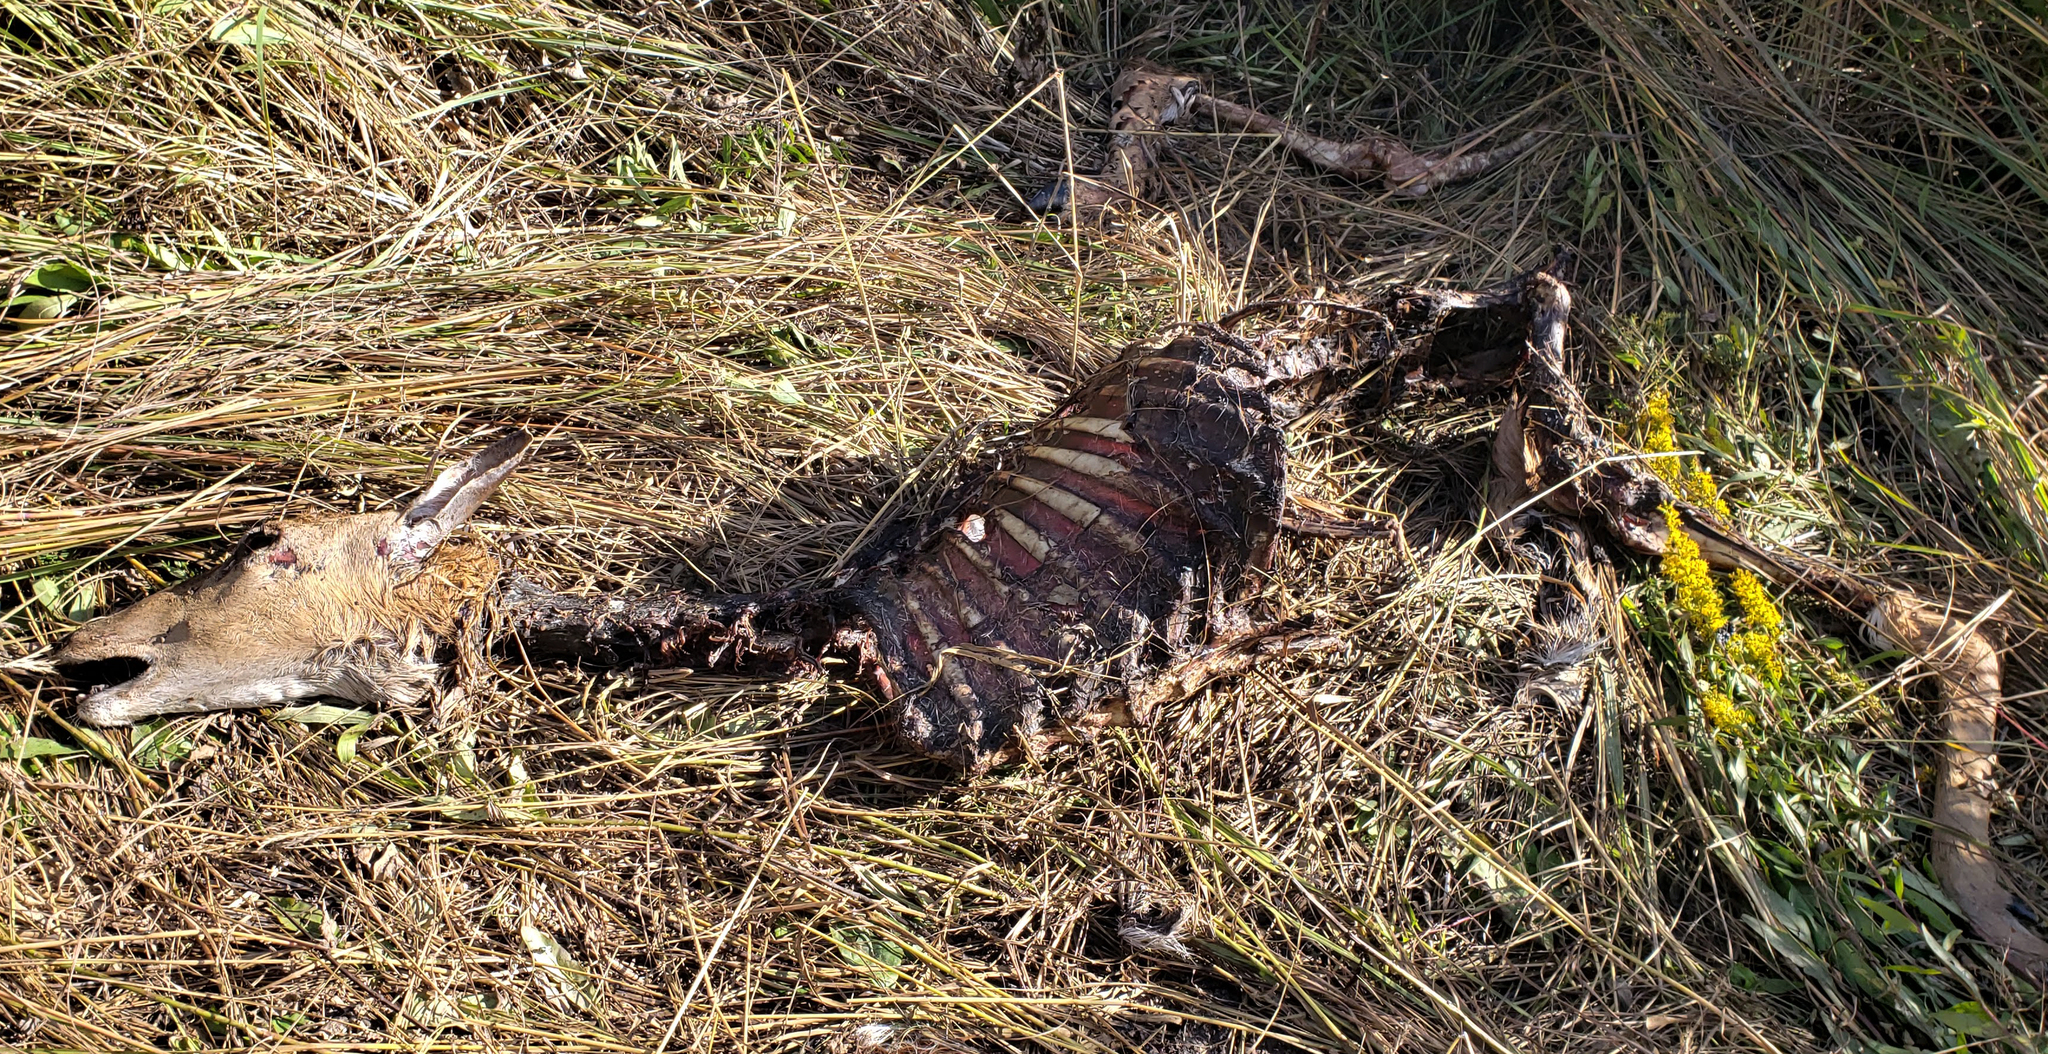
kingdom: Animalia
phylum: Chordata
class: Mammalia
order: Artiodactyla
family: Cervidae
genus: Odocoileus
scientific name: Odocoileus virginianus
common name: White-tailed deer
